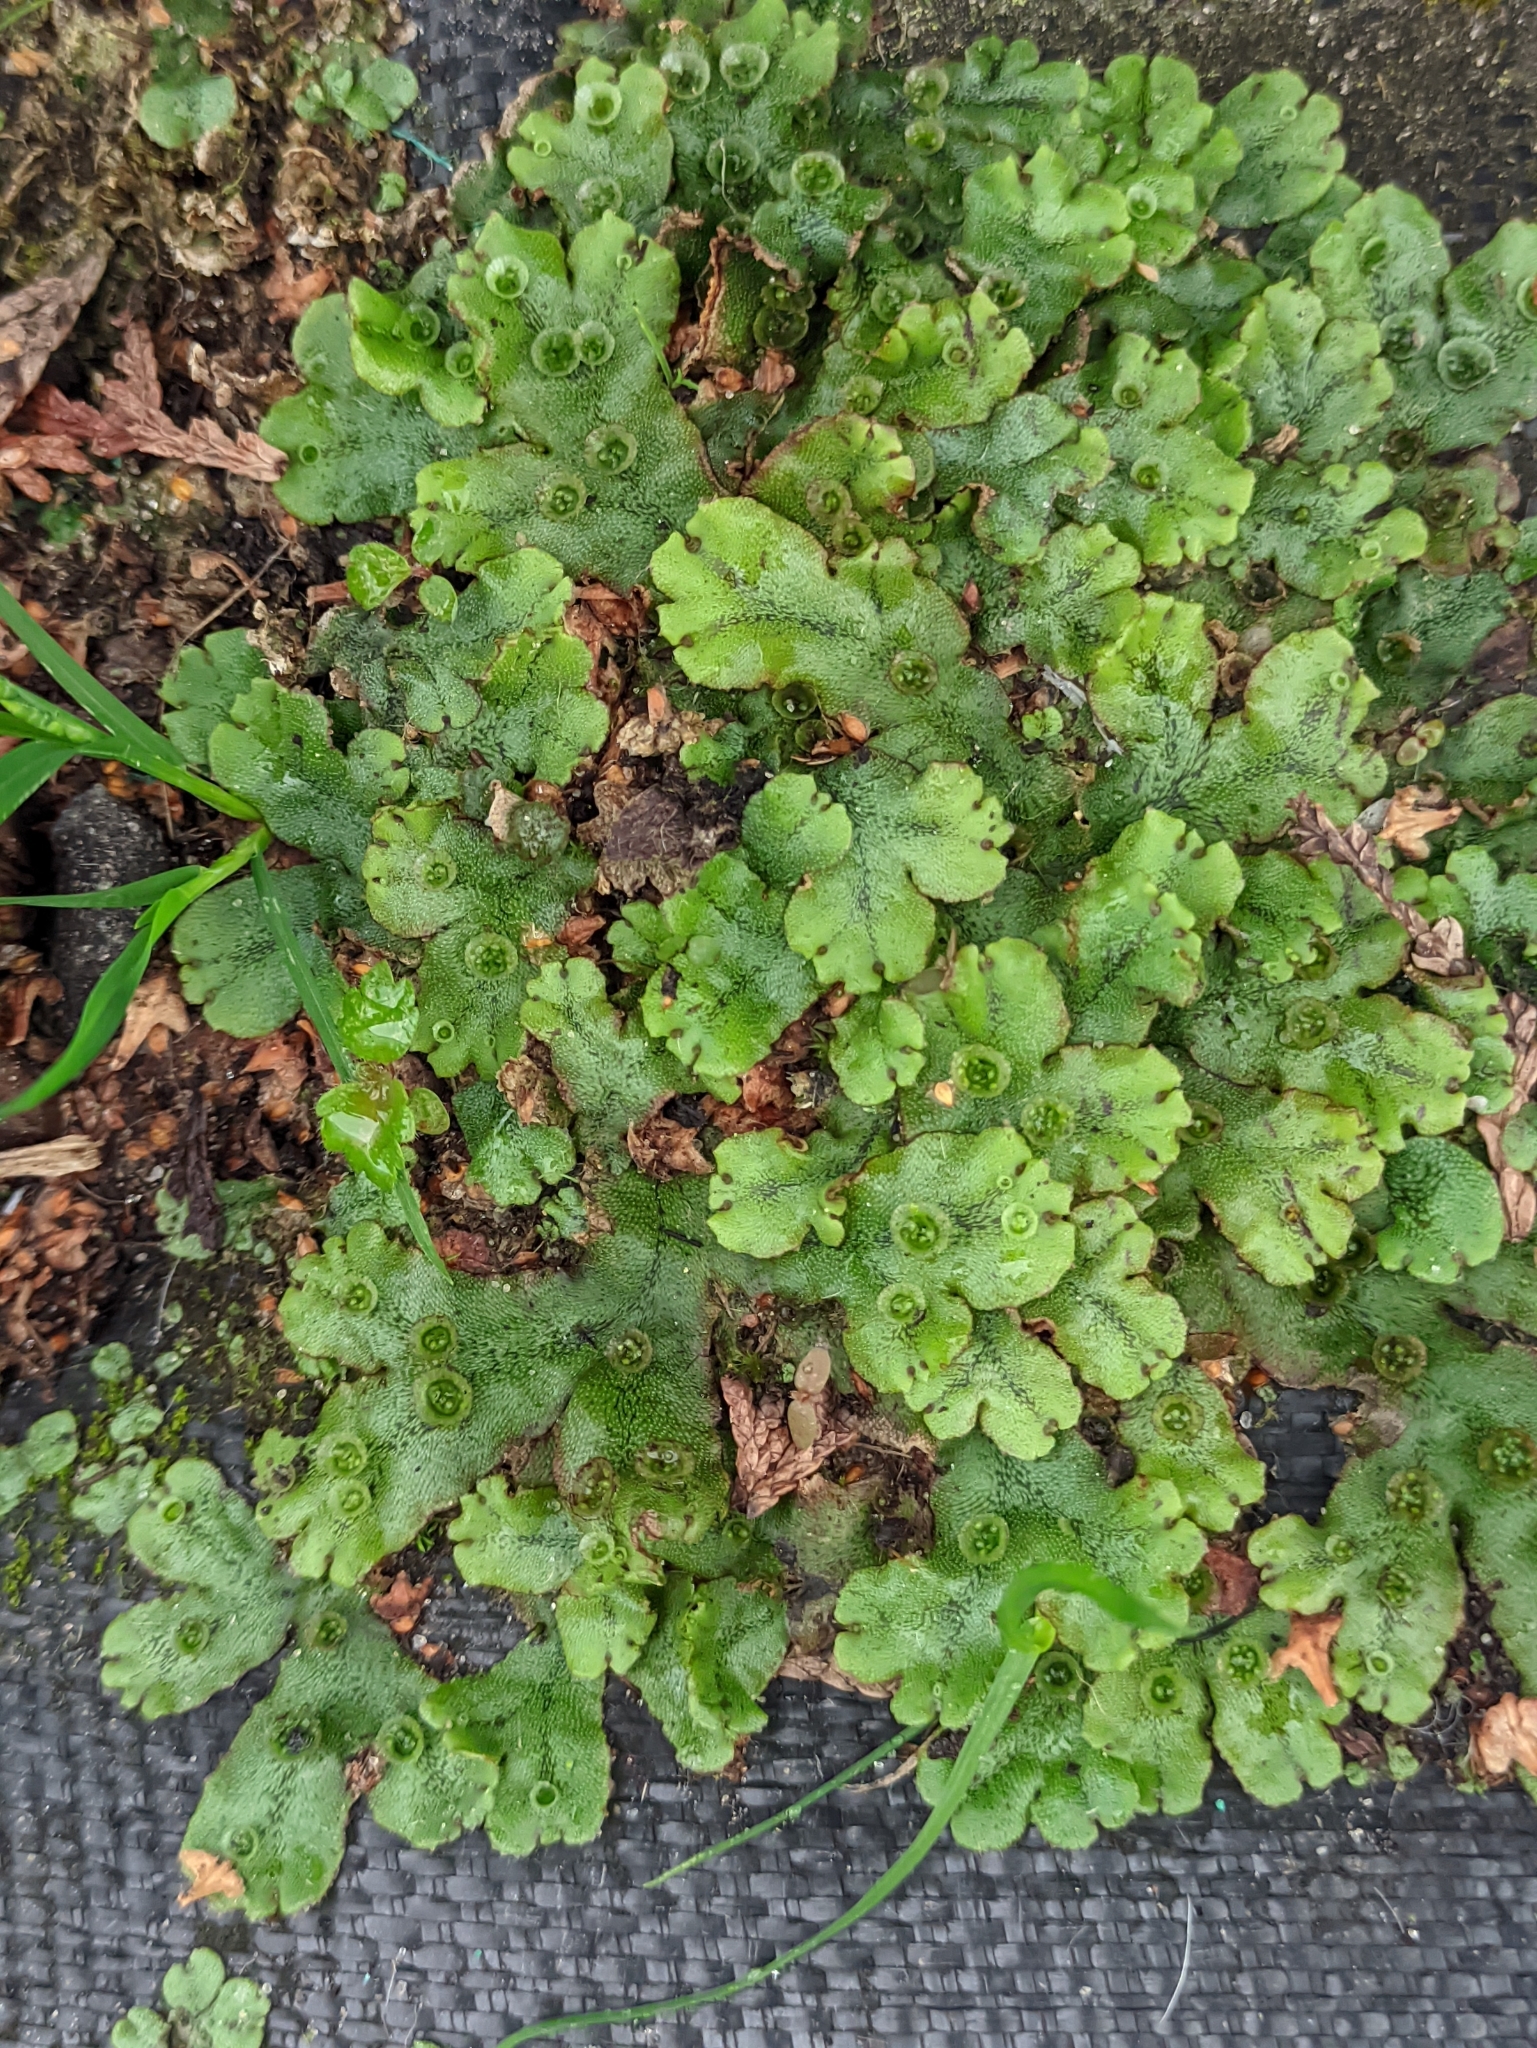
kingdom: Plantae
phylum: Marchantiophyta
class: Marchantiopsida
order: Marchantiales
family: Marchantiaceae
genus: Marchantia
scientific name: Marchantia polymorpha
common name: Common liverwort
